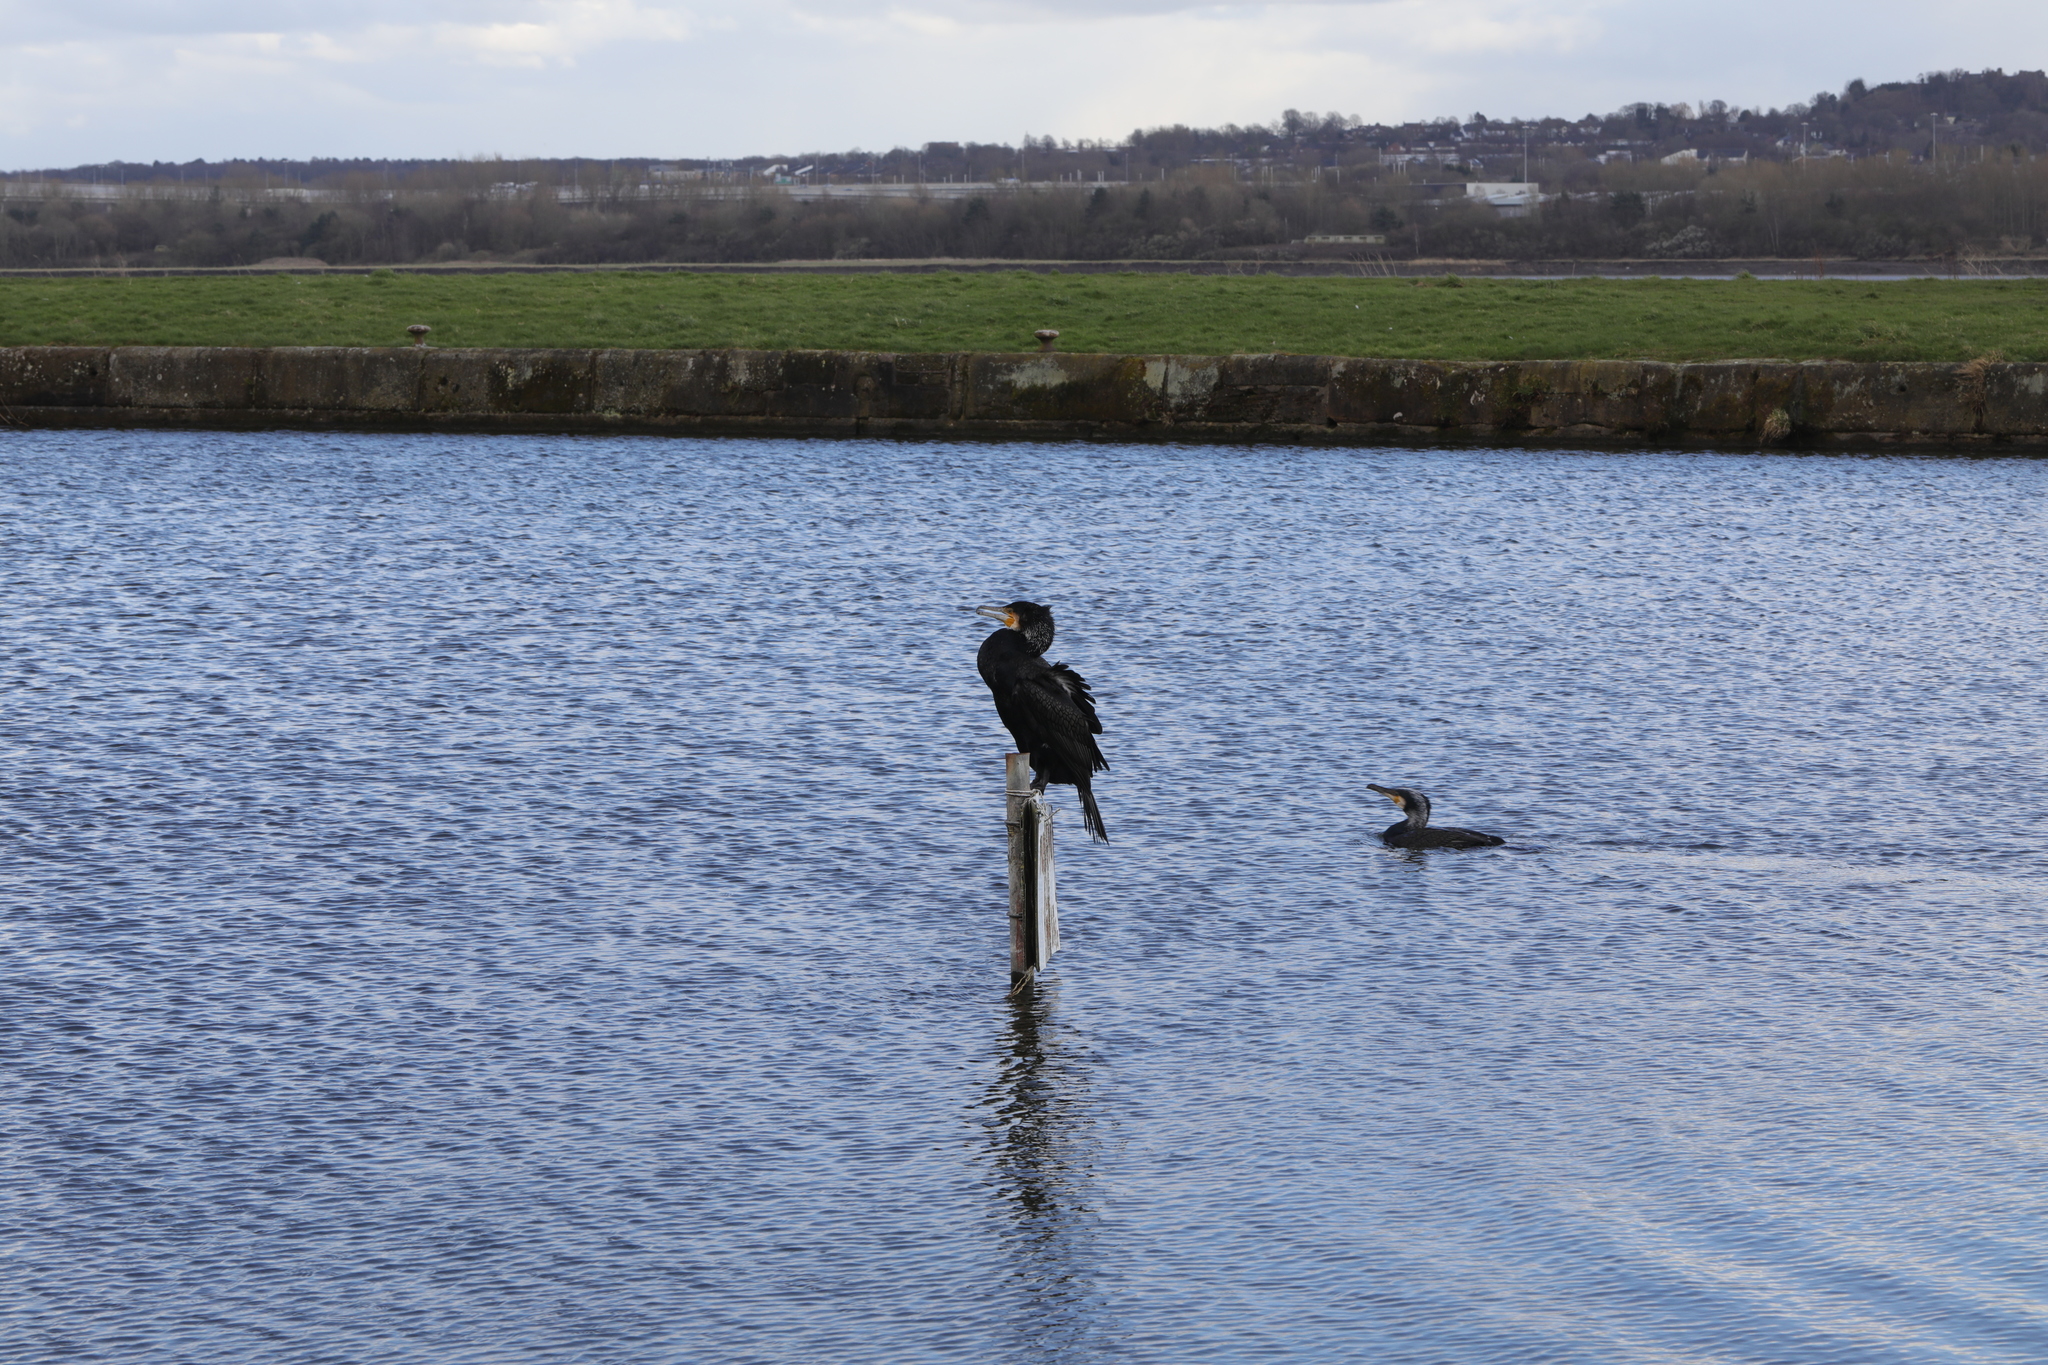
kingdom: Animalia
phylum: Chordata
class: Aves
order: Suliformes
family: Phalacrocoracidae
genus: Phalacrocorax
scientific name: Phalacrocorax carbo
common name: Great cormorant
